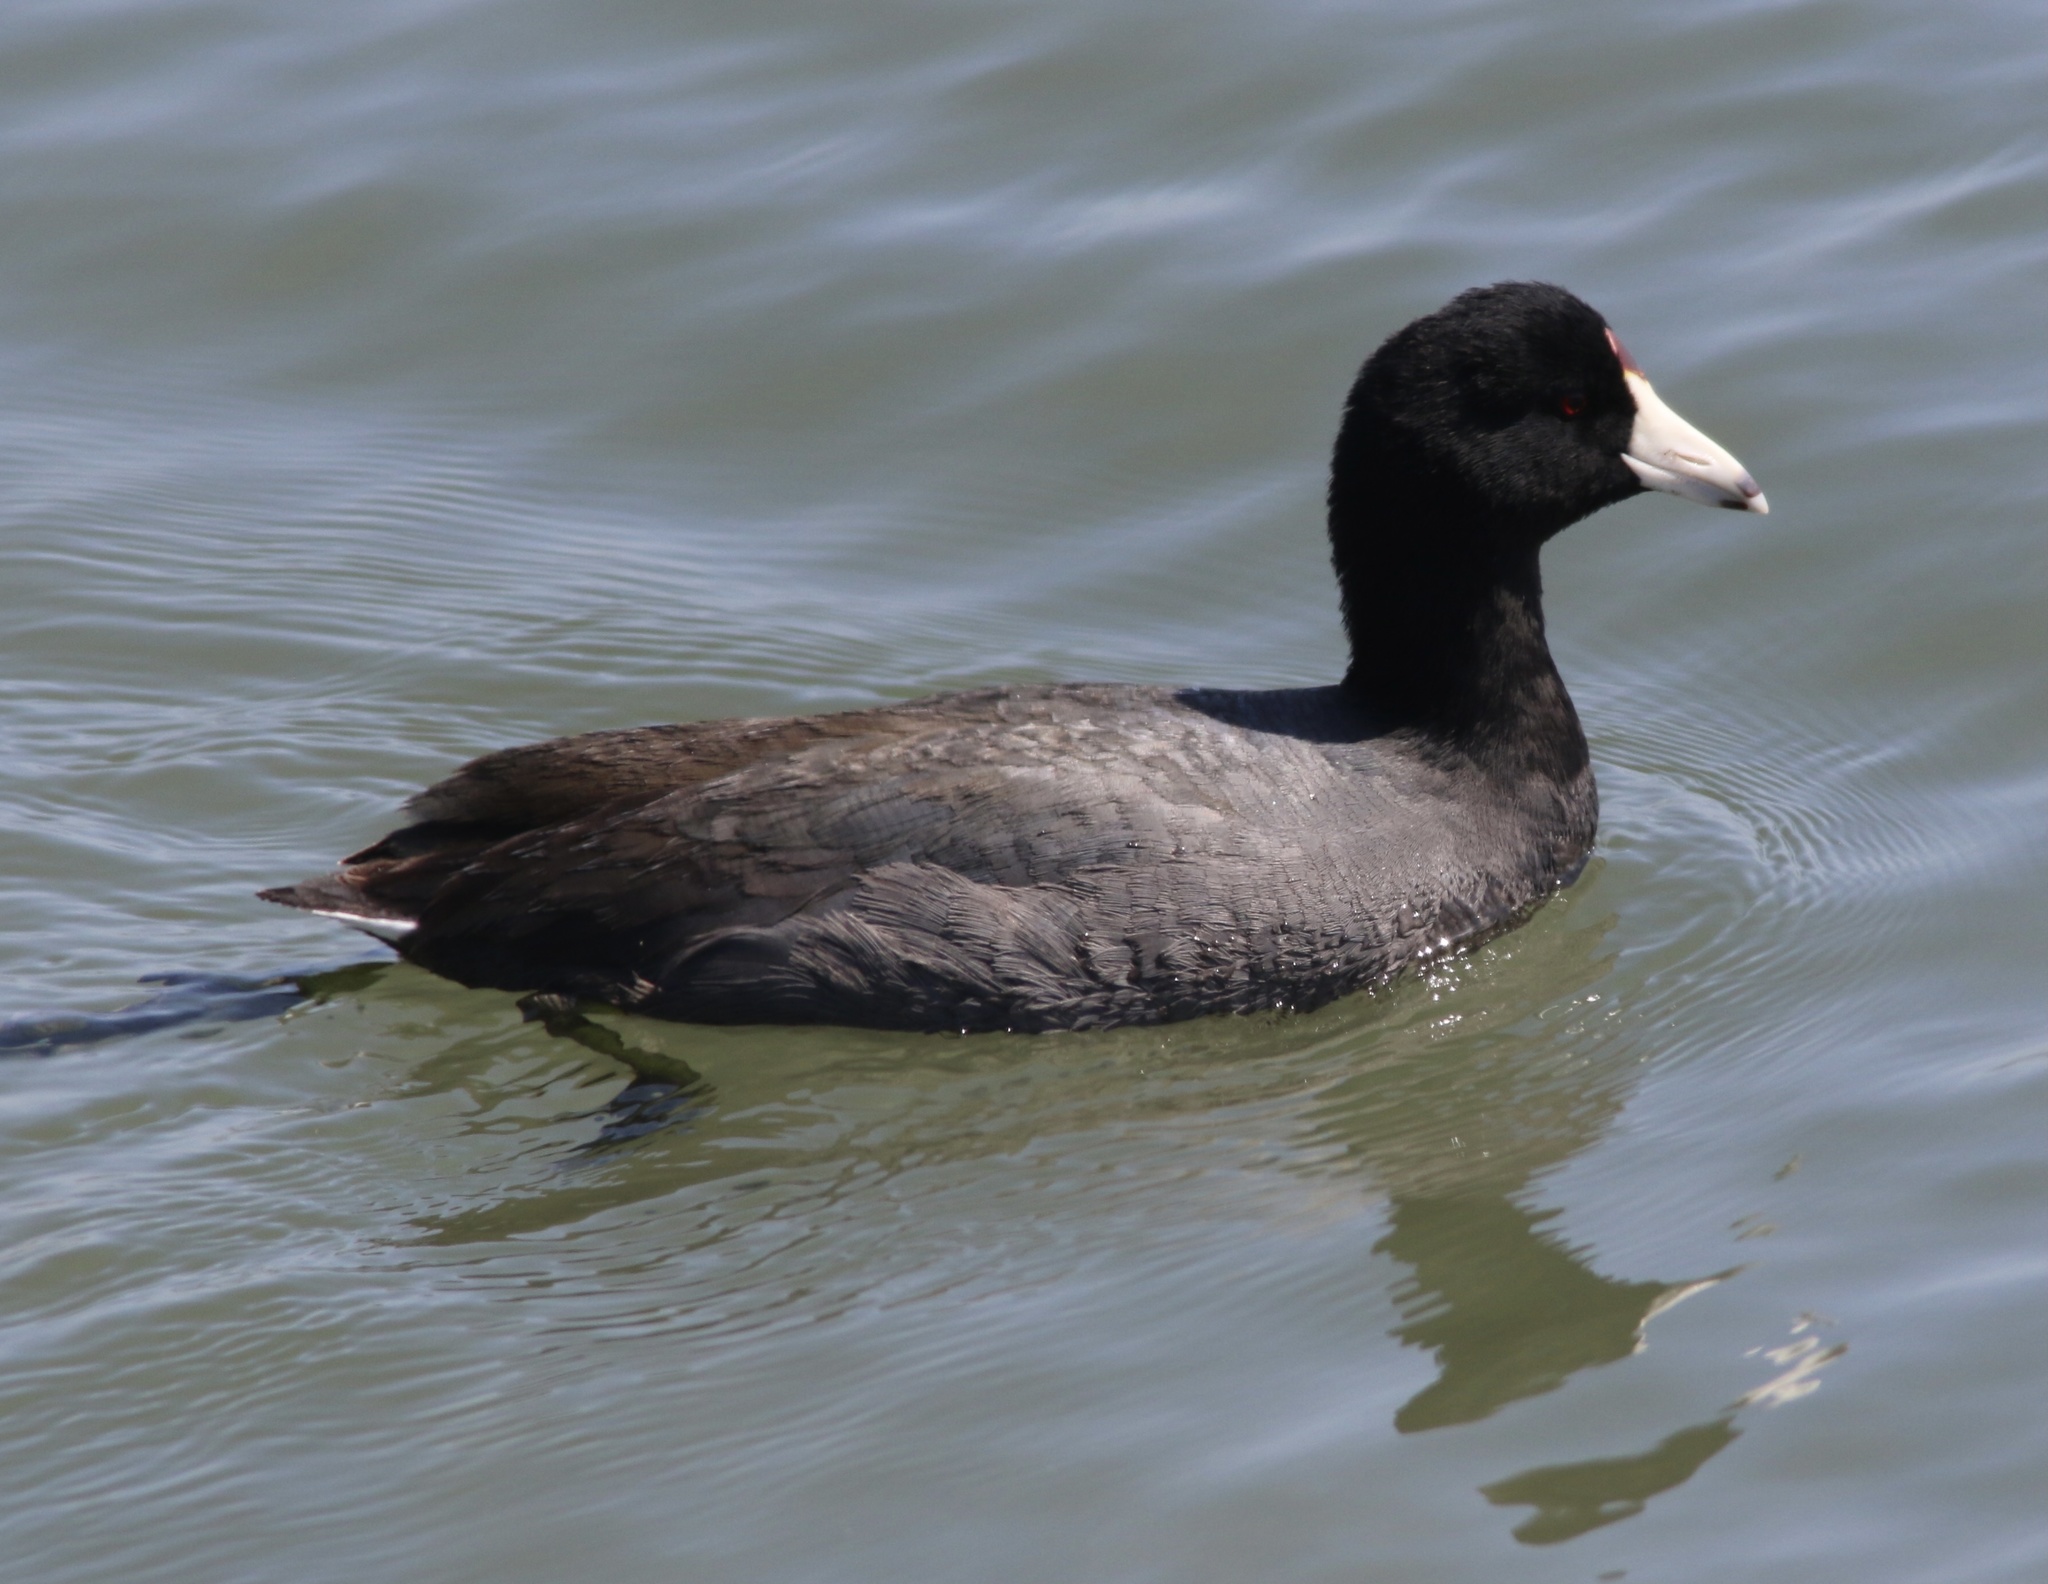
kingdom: Animalia
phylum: Chordata
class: Aves
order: Gruiformes
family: Rallidae
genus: Fulica
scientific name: Fulica americana
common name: American coot
